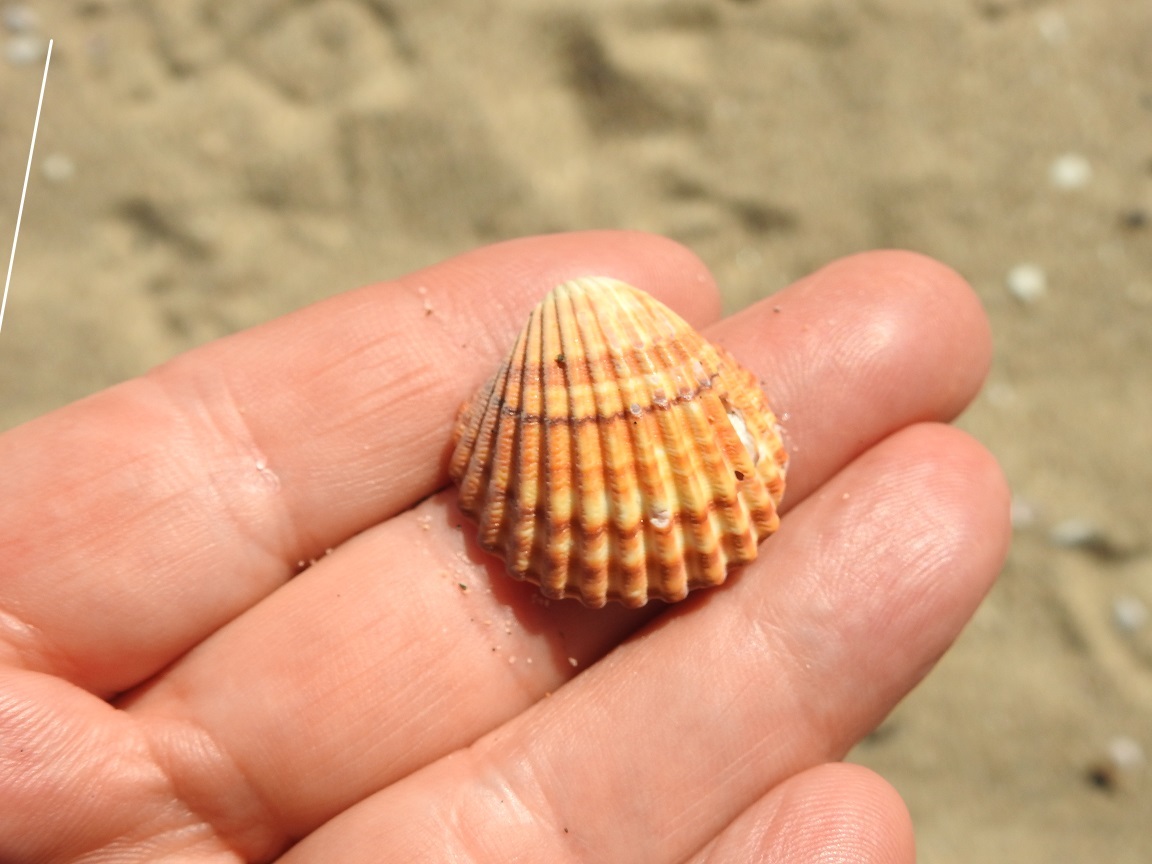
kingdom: Animalia
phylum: Mollusca
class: Bivalvia
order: Cardiida
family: Cardiidae
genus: Acanthocardia
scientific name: Acanthocardia tuberculata
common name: Rough cockle
